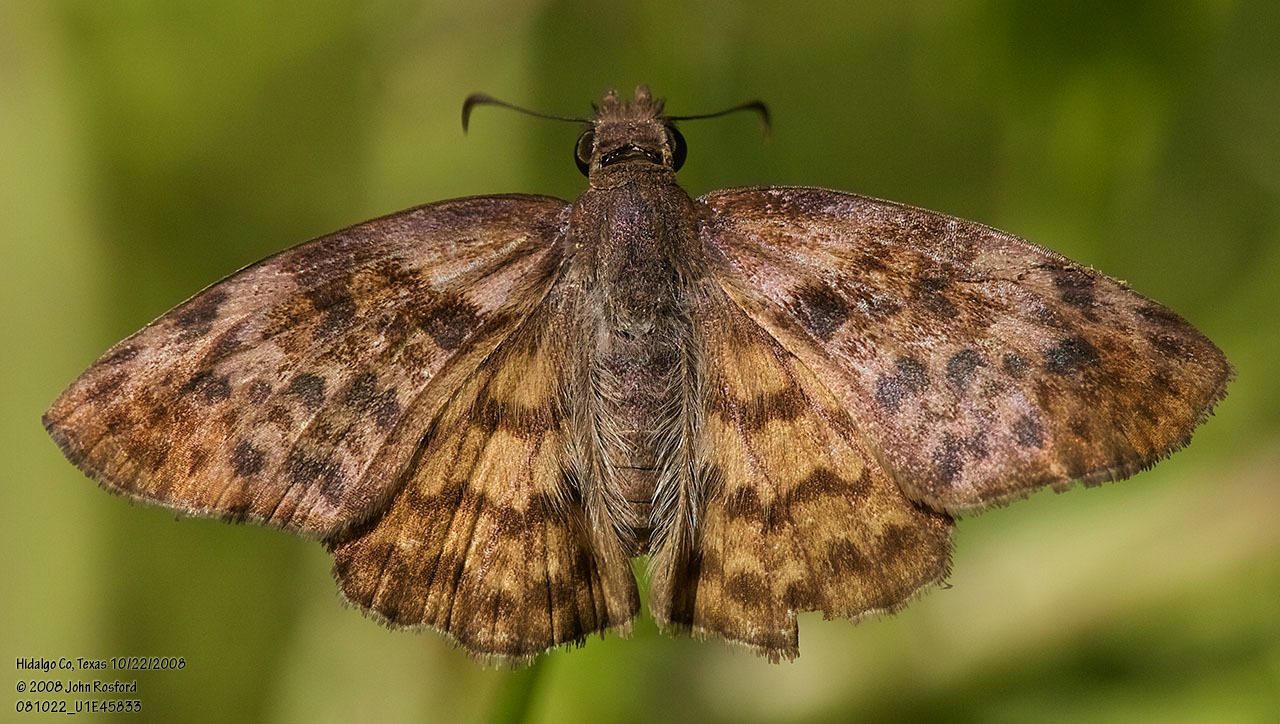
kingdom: Animalia
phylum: Arthropoda
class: Insecta
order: Lepidoptera
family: Hesperiidae
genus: Timochares
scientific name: Timochares ruptifasciata
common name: Brown-banded skipper
